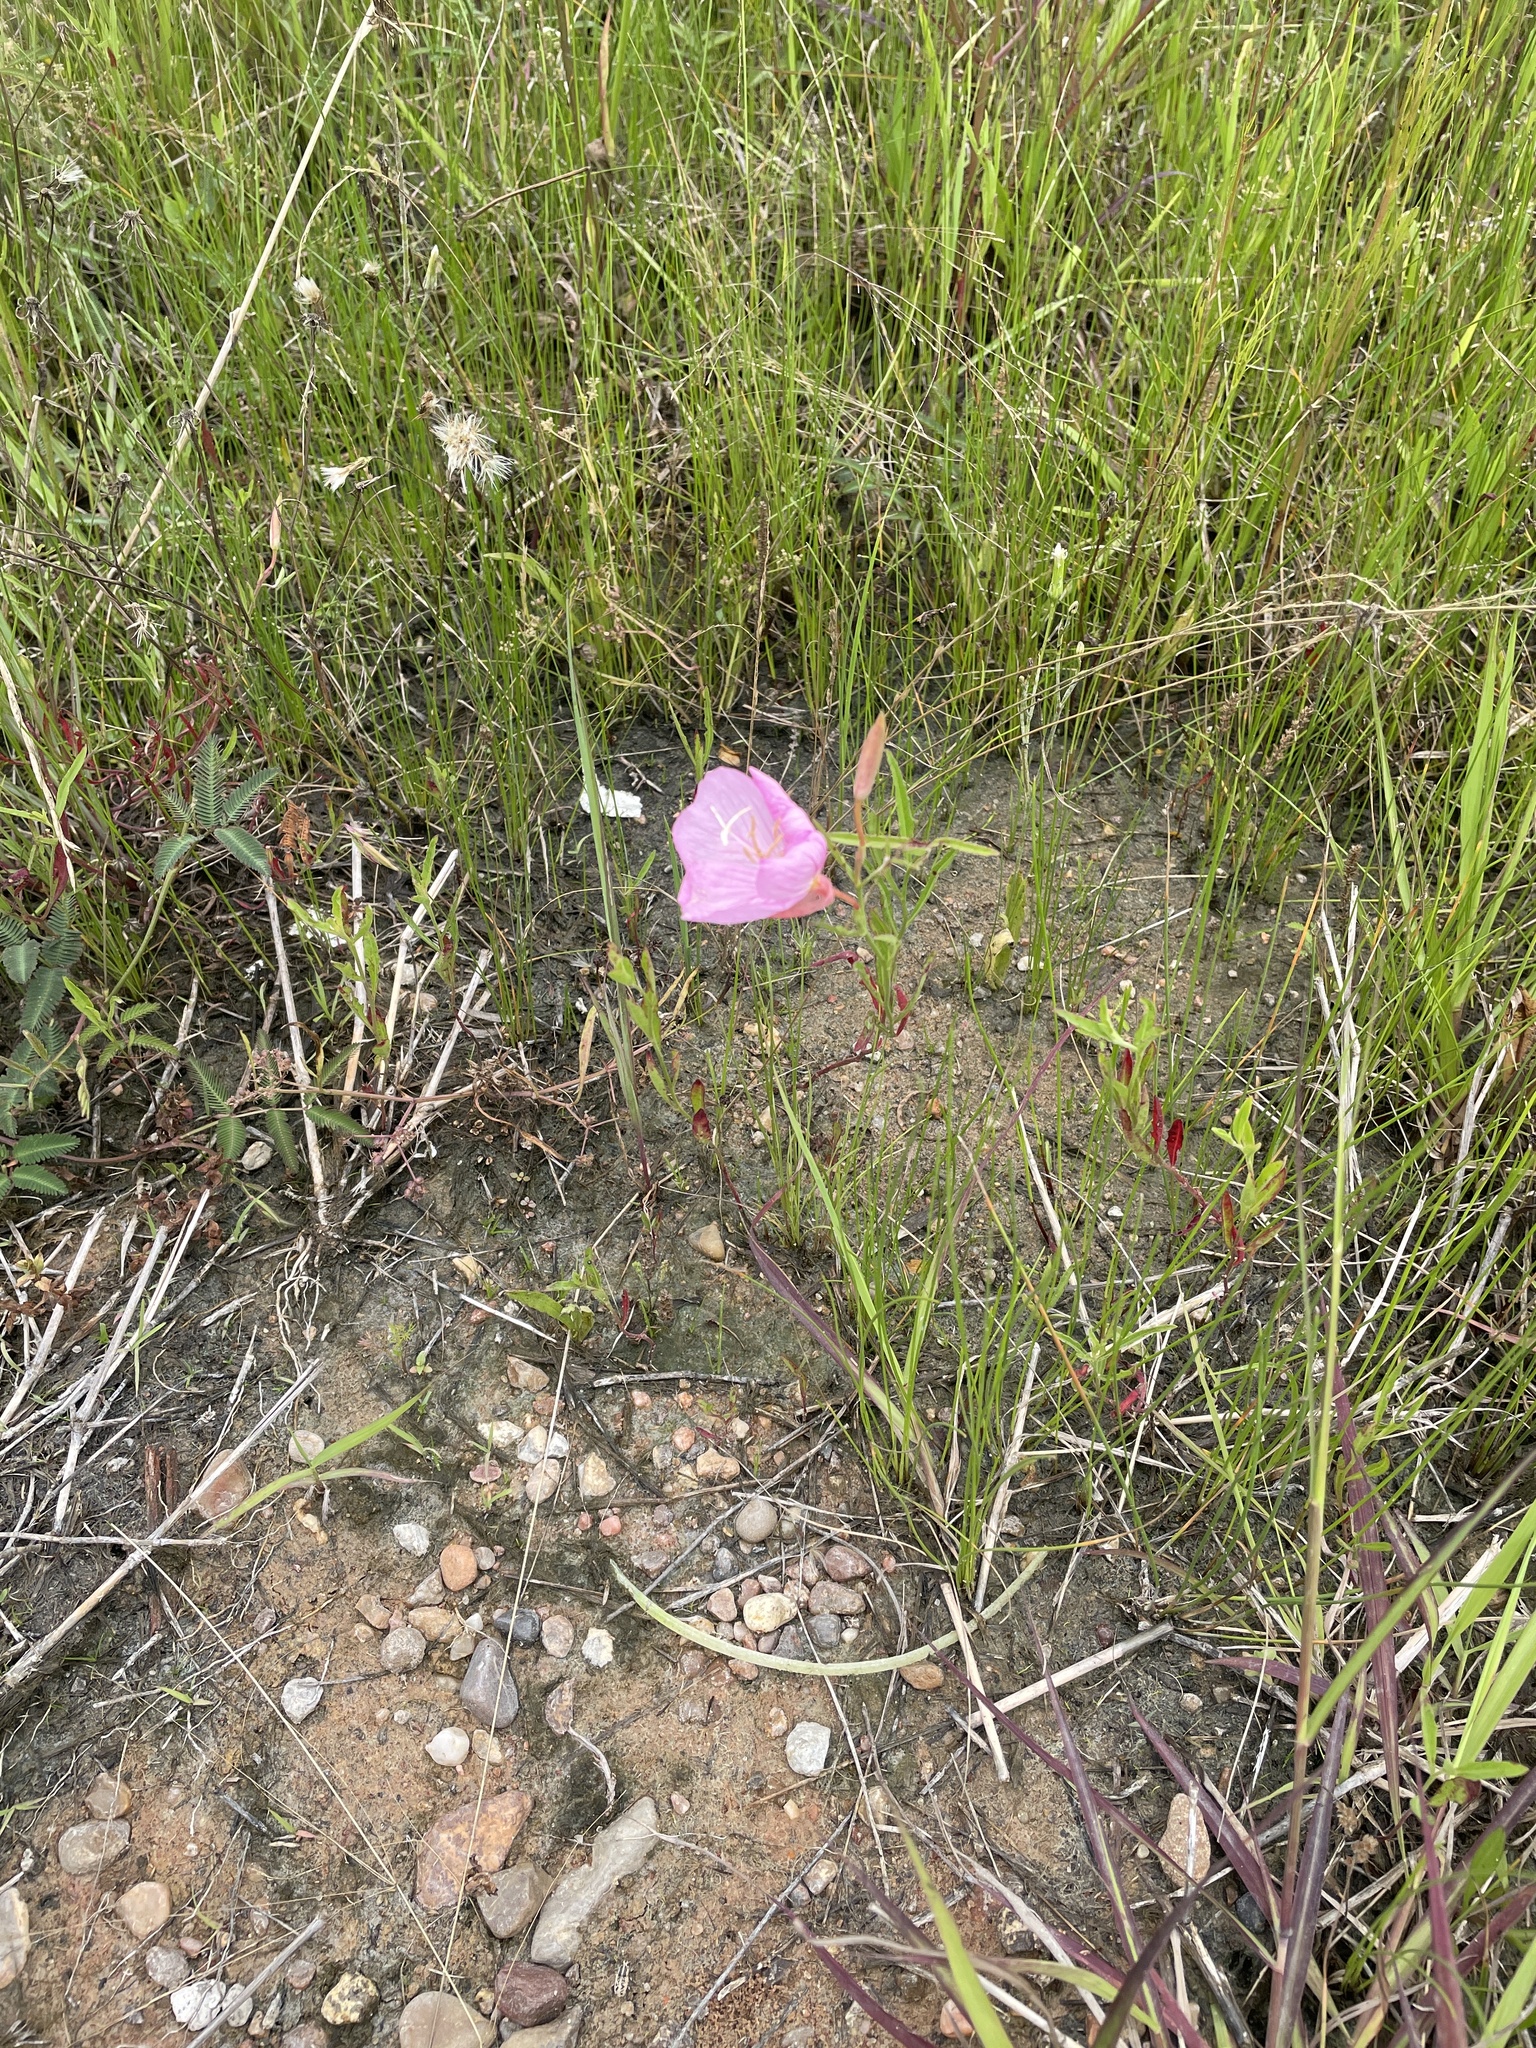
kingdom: Plantae
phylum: Tracheophyta
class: Magnoliopsida
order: Myrtales
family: Onagraceae
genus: Oenothera
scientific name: Oenothera speciosa
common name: White evening-primrose
